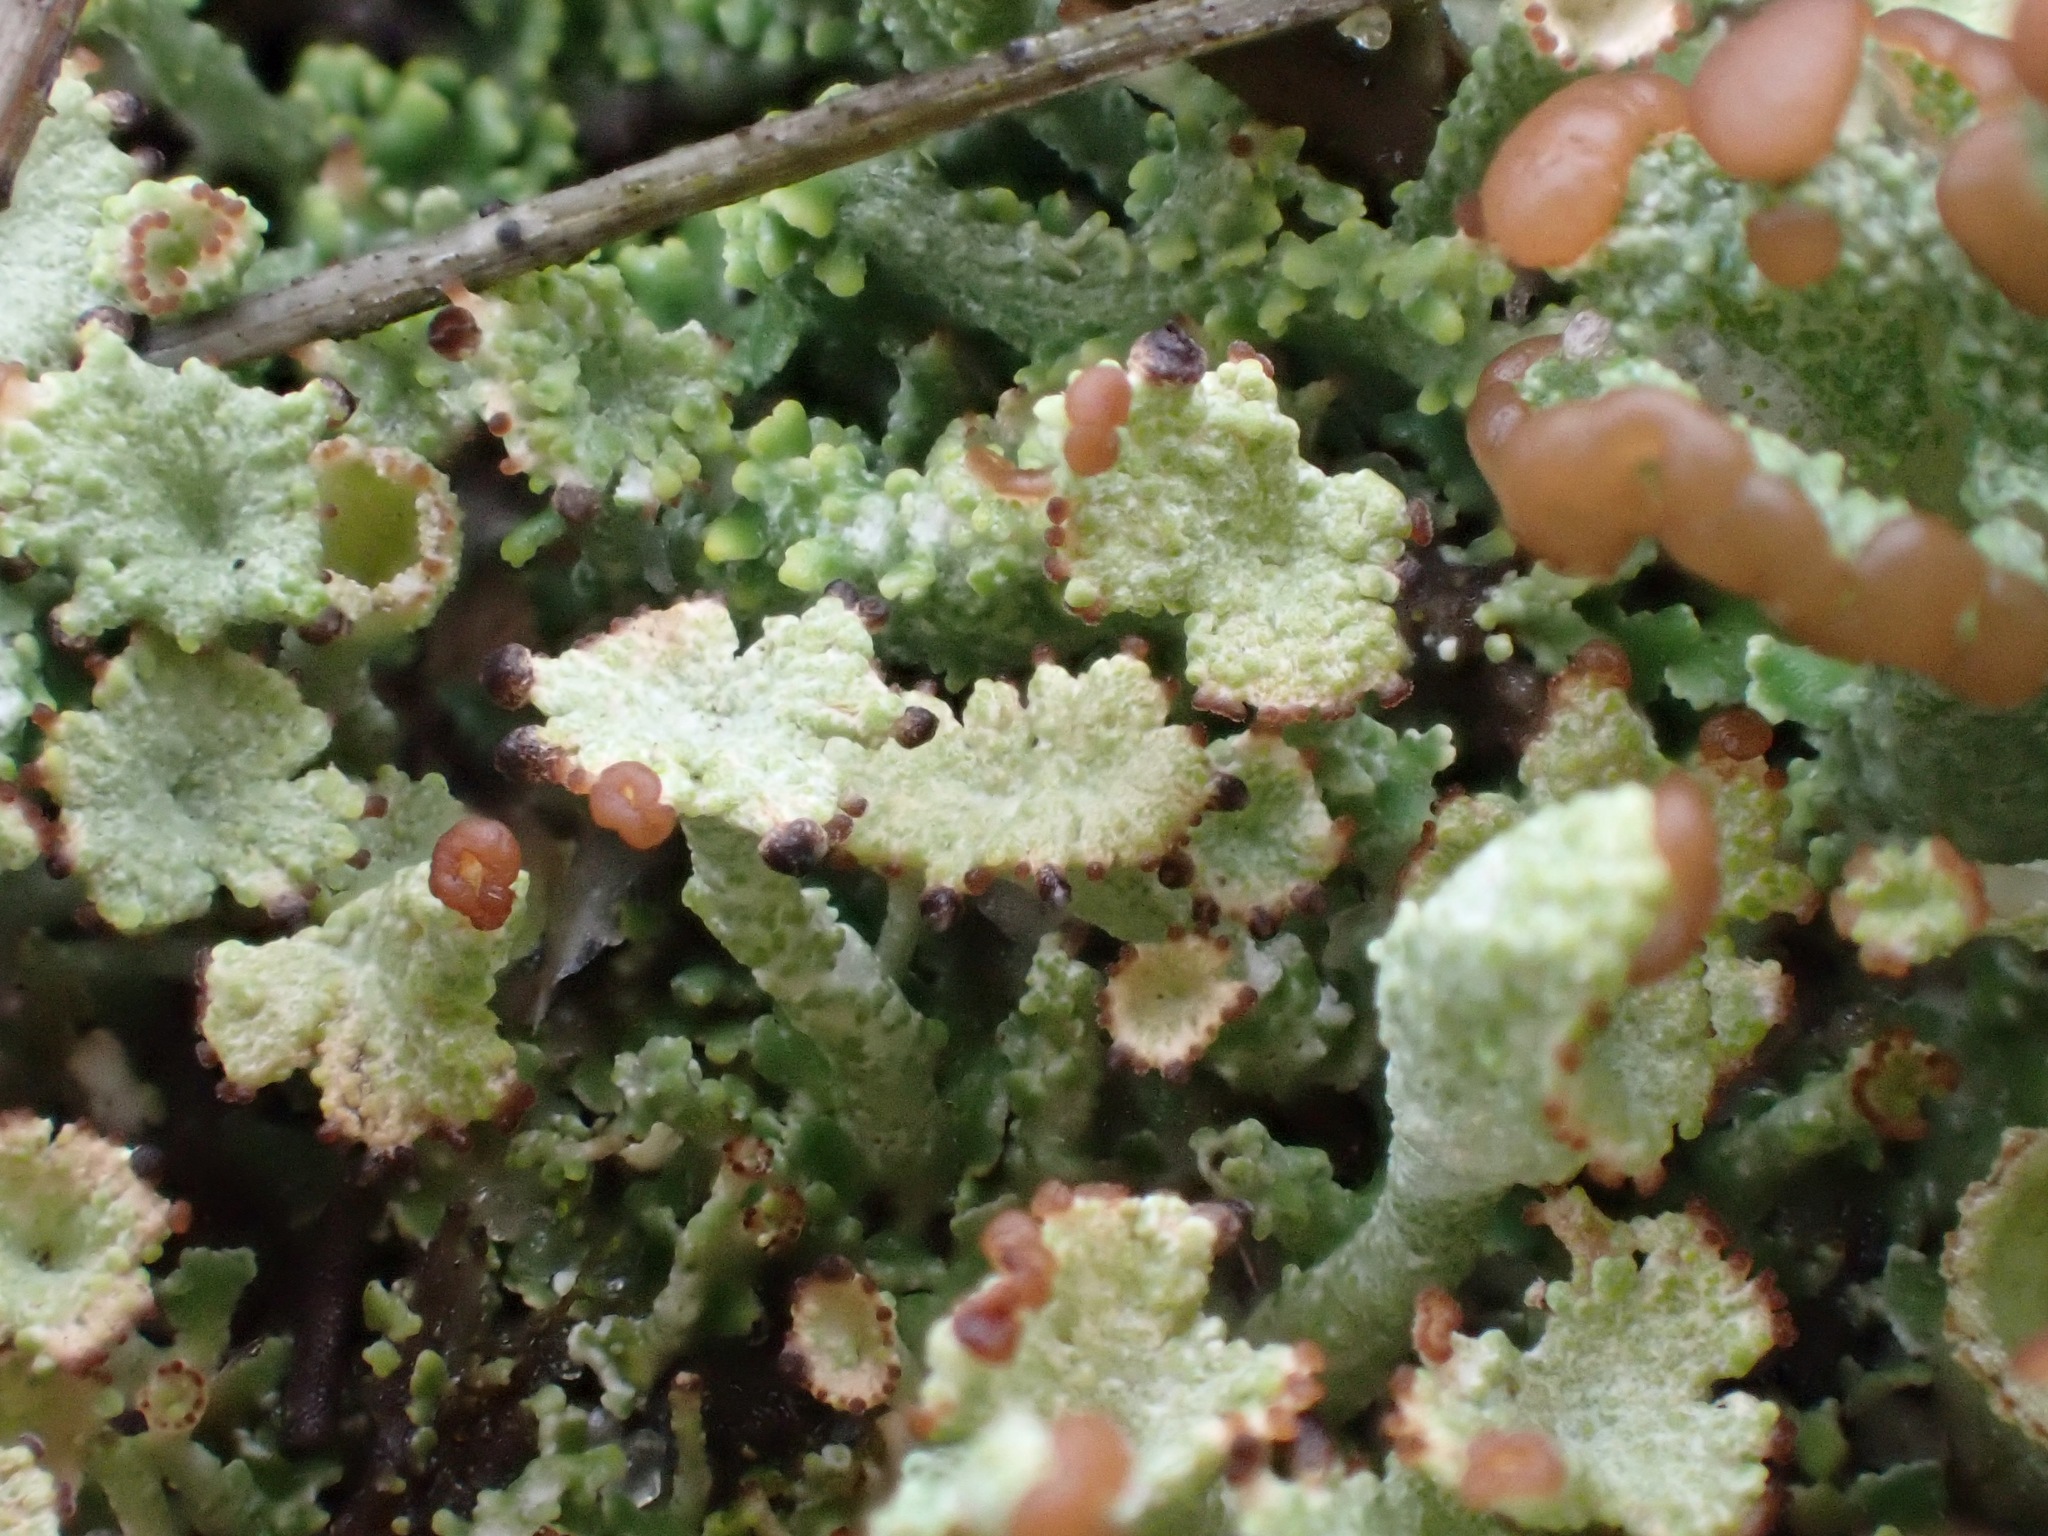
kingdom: Fungi
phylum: Ascomycota
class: Lecanoromycetes
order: Lecanorales
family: Cladoniaceae
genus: Cladonia
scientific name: Cladonia ramulosa
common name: Branched pixie-cup lichen
